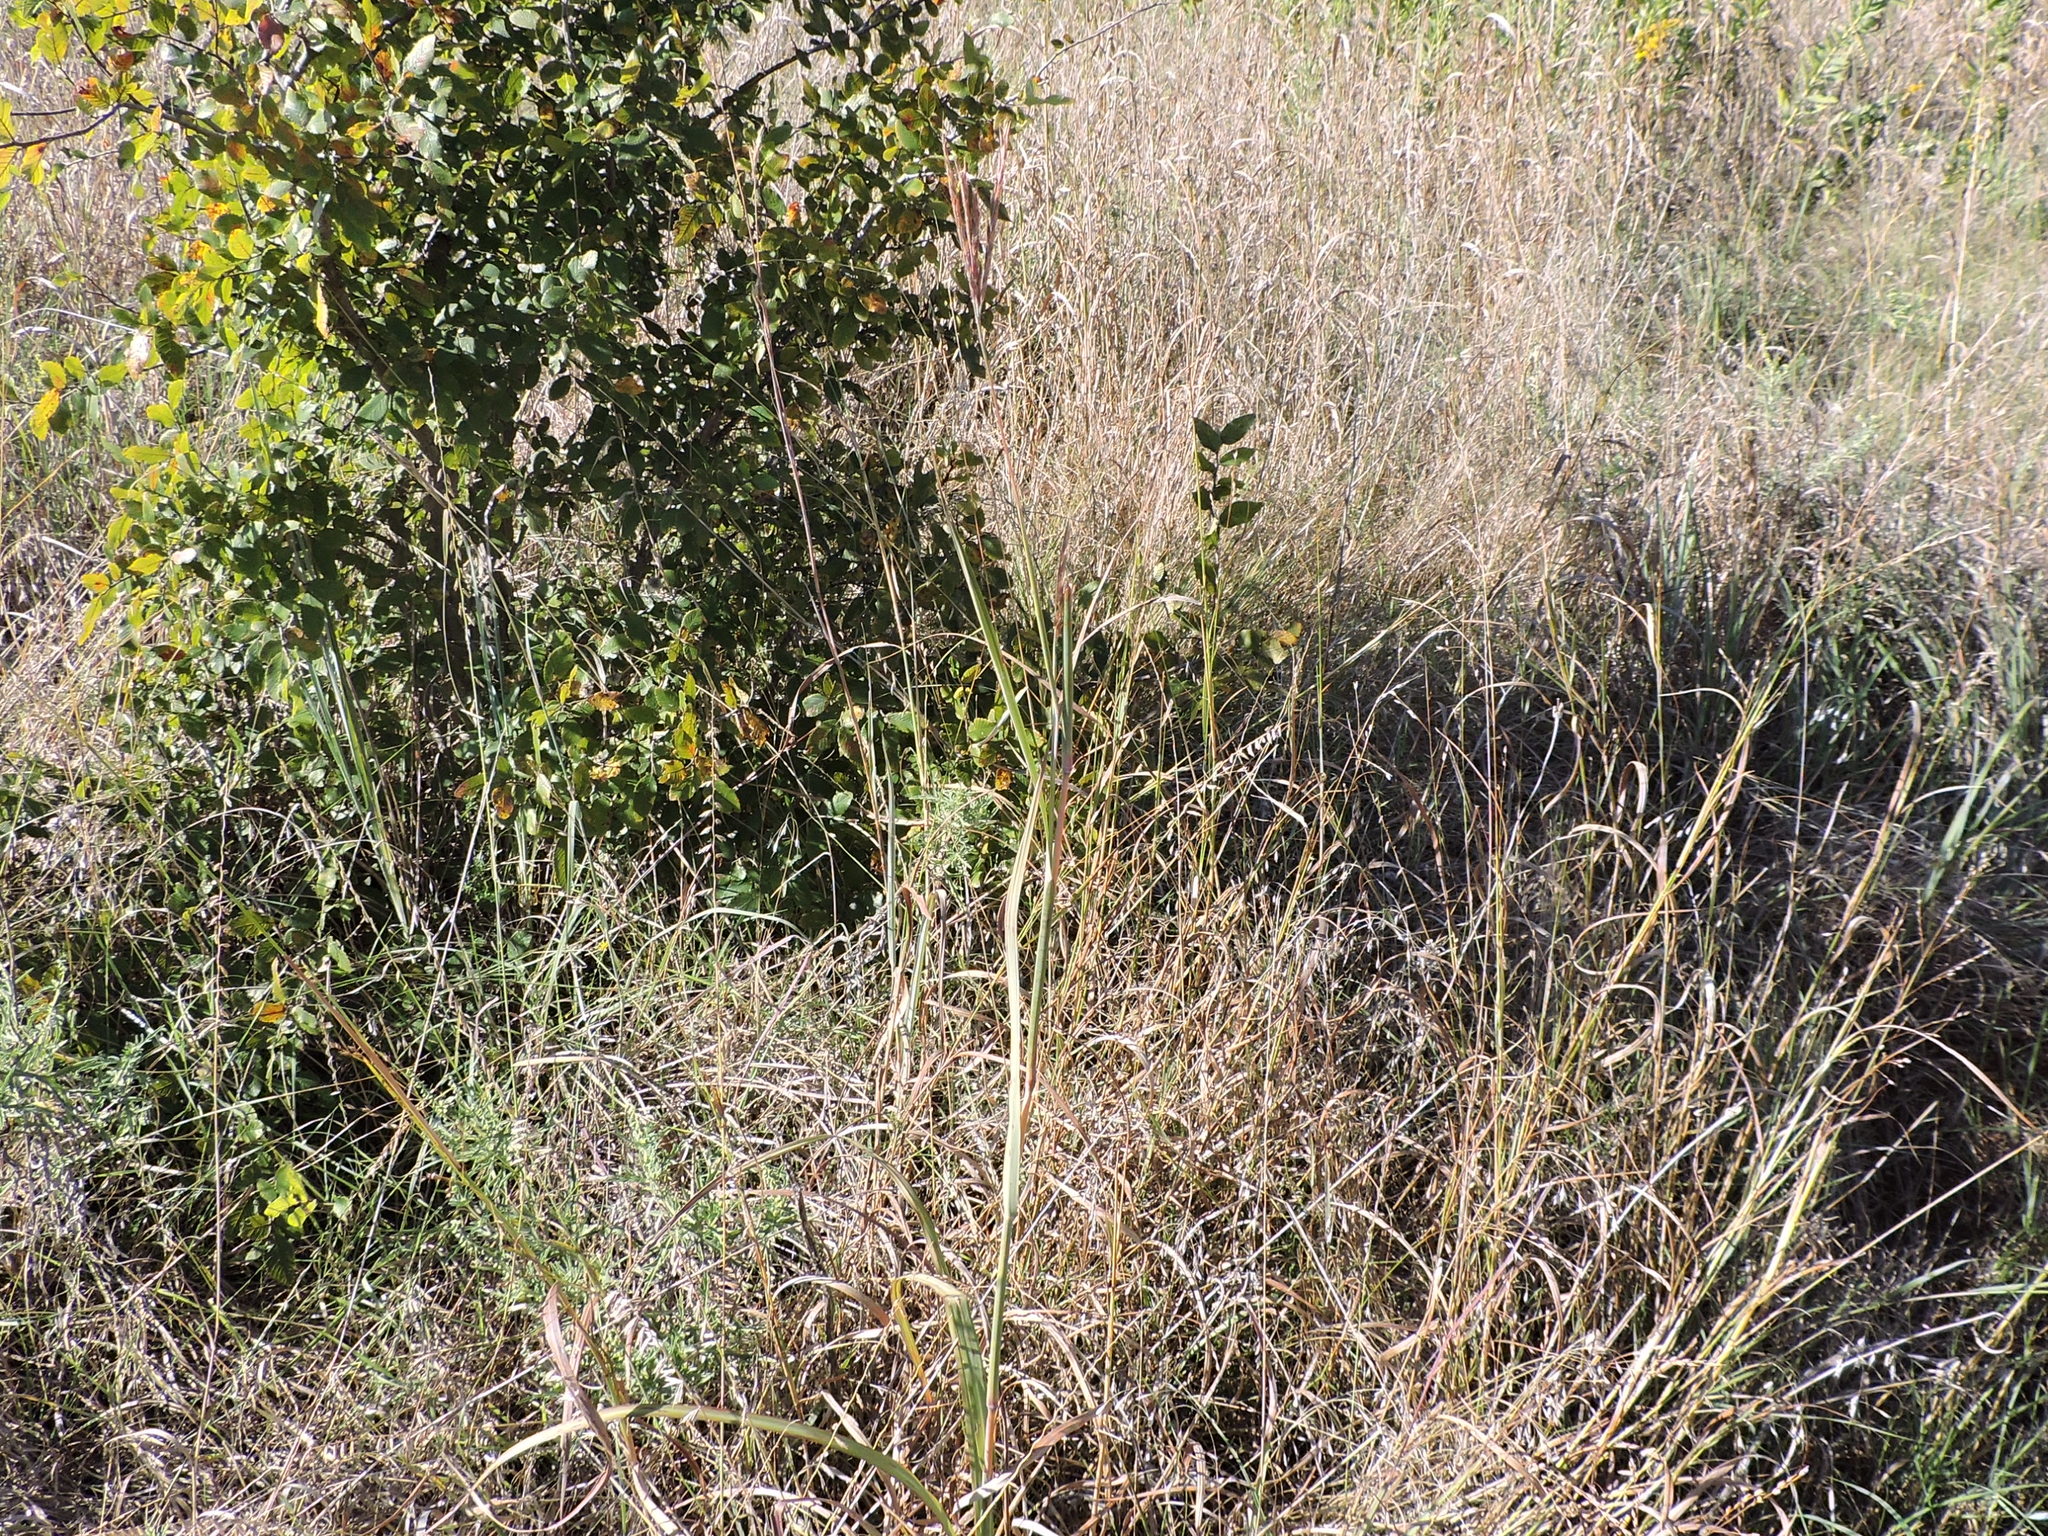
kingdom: Plantae
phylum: Tracheophyta
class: Liliopsida
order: Poales
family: Poaceae
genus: Andropogon
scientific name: Andropogon gerardi
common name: Big bluestem
